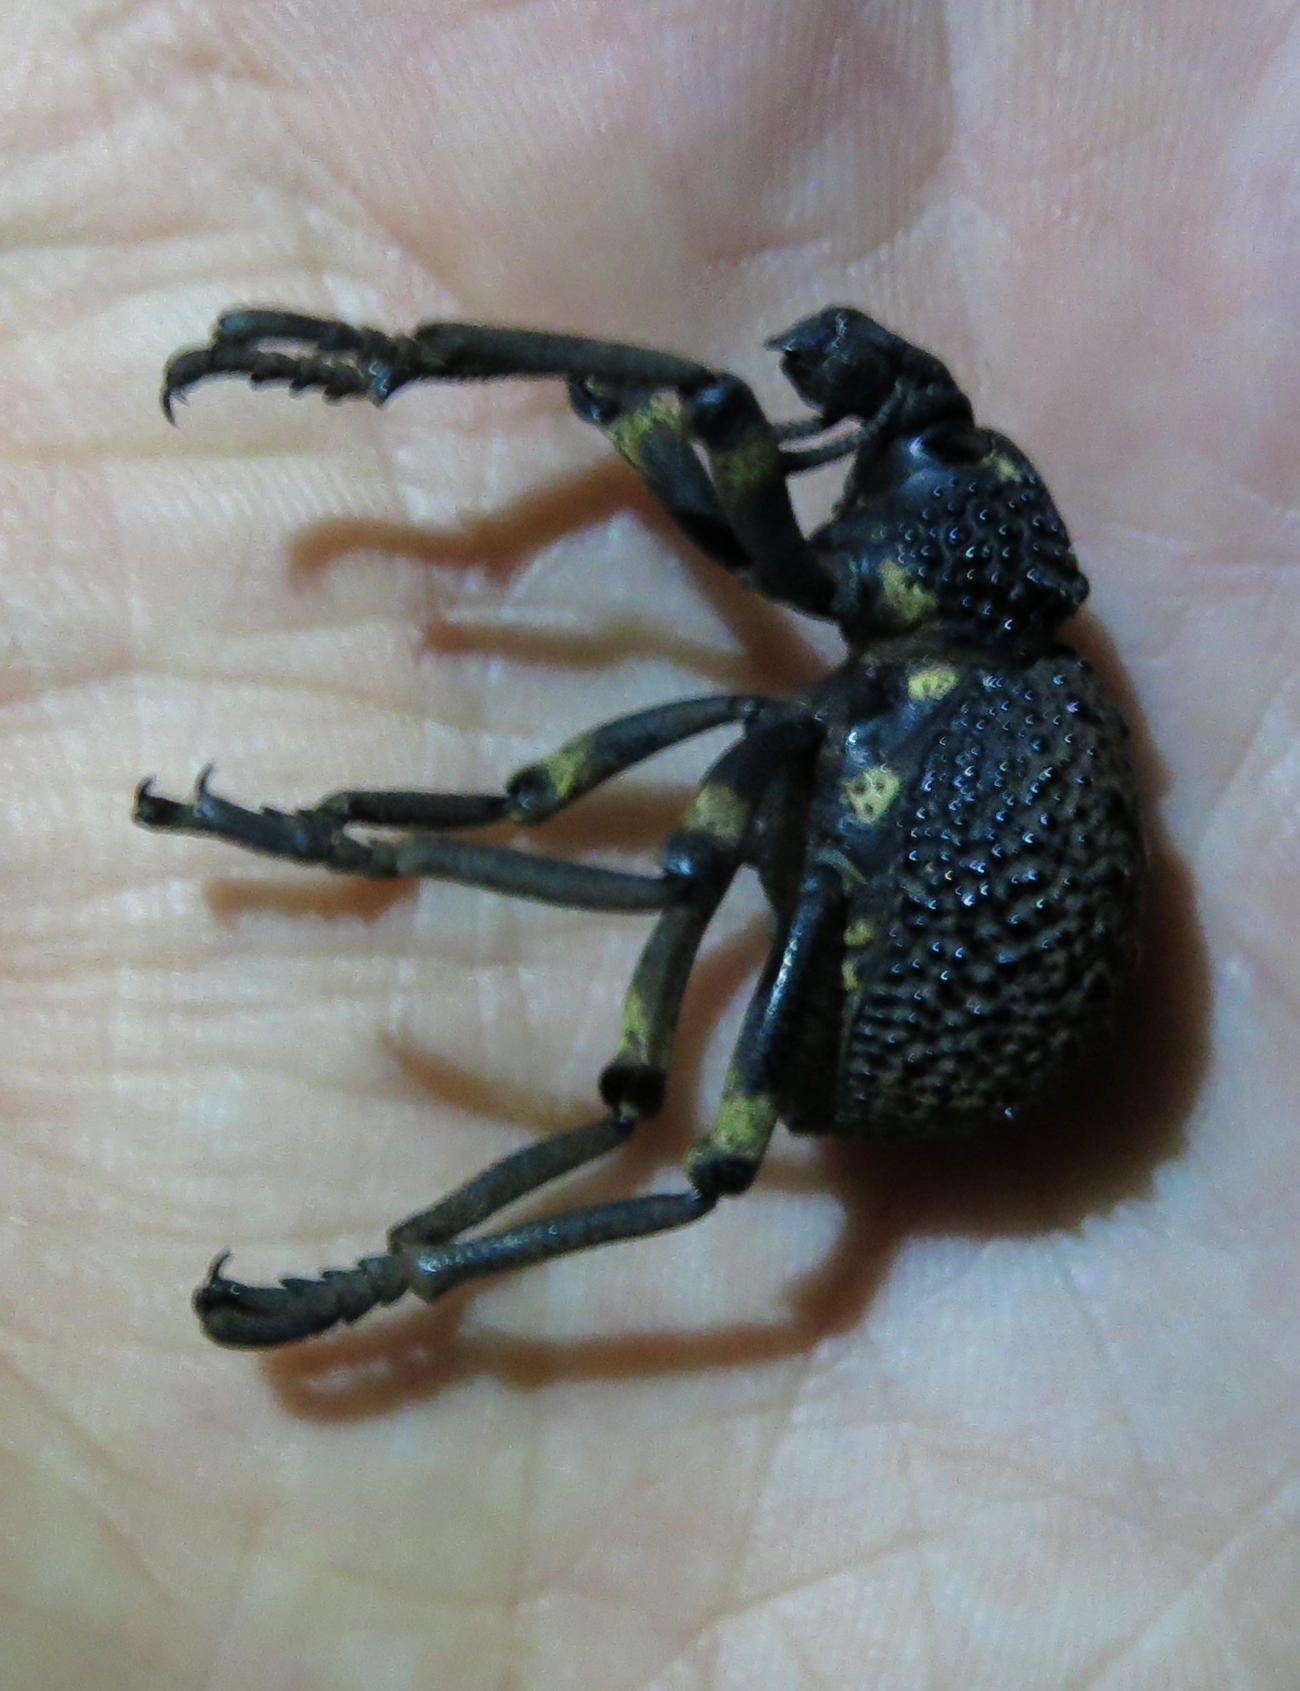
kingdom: Animalia
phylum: Arthropoda
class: Insecta
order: Coleoptera
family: Brachyceridae
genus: Brachycerus
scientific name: Brachycerus congestus
